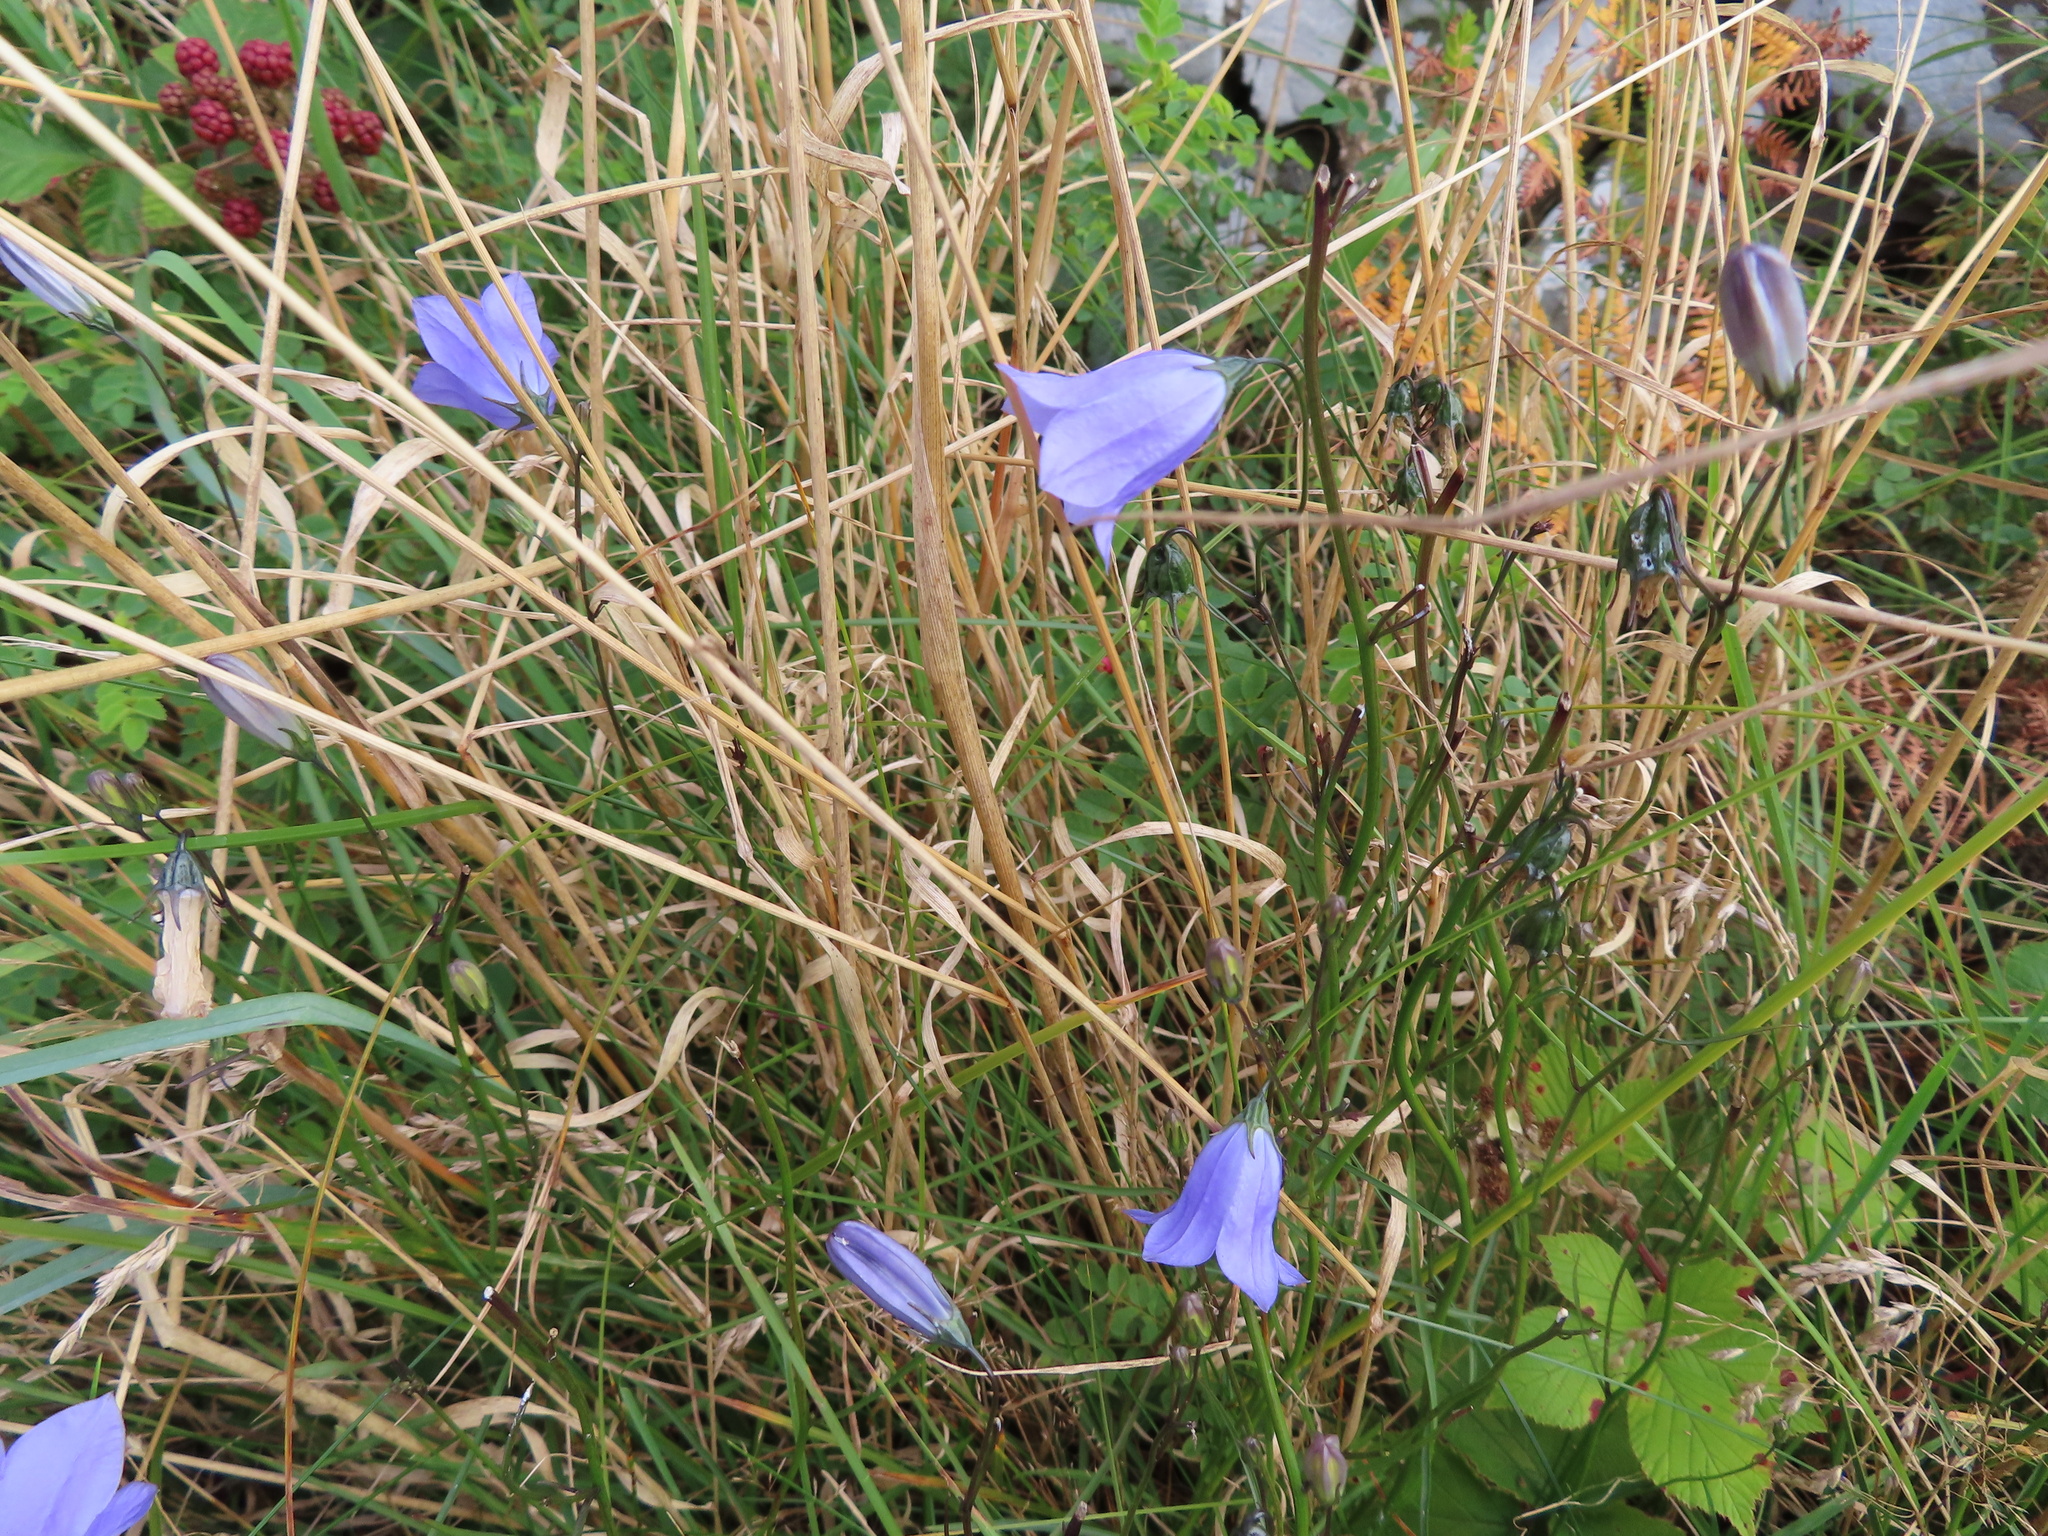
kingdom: Plantae
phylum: Tracheophyta
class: Magnoliopsida
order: Asterales
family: Campanulaceae
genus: Campanula
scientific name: Campanula rotundifolia
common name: Harebell
